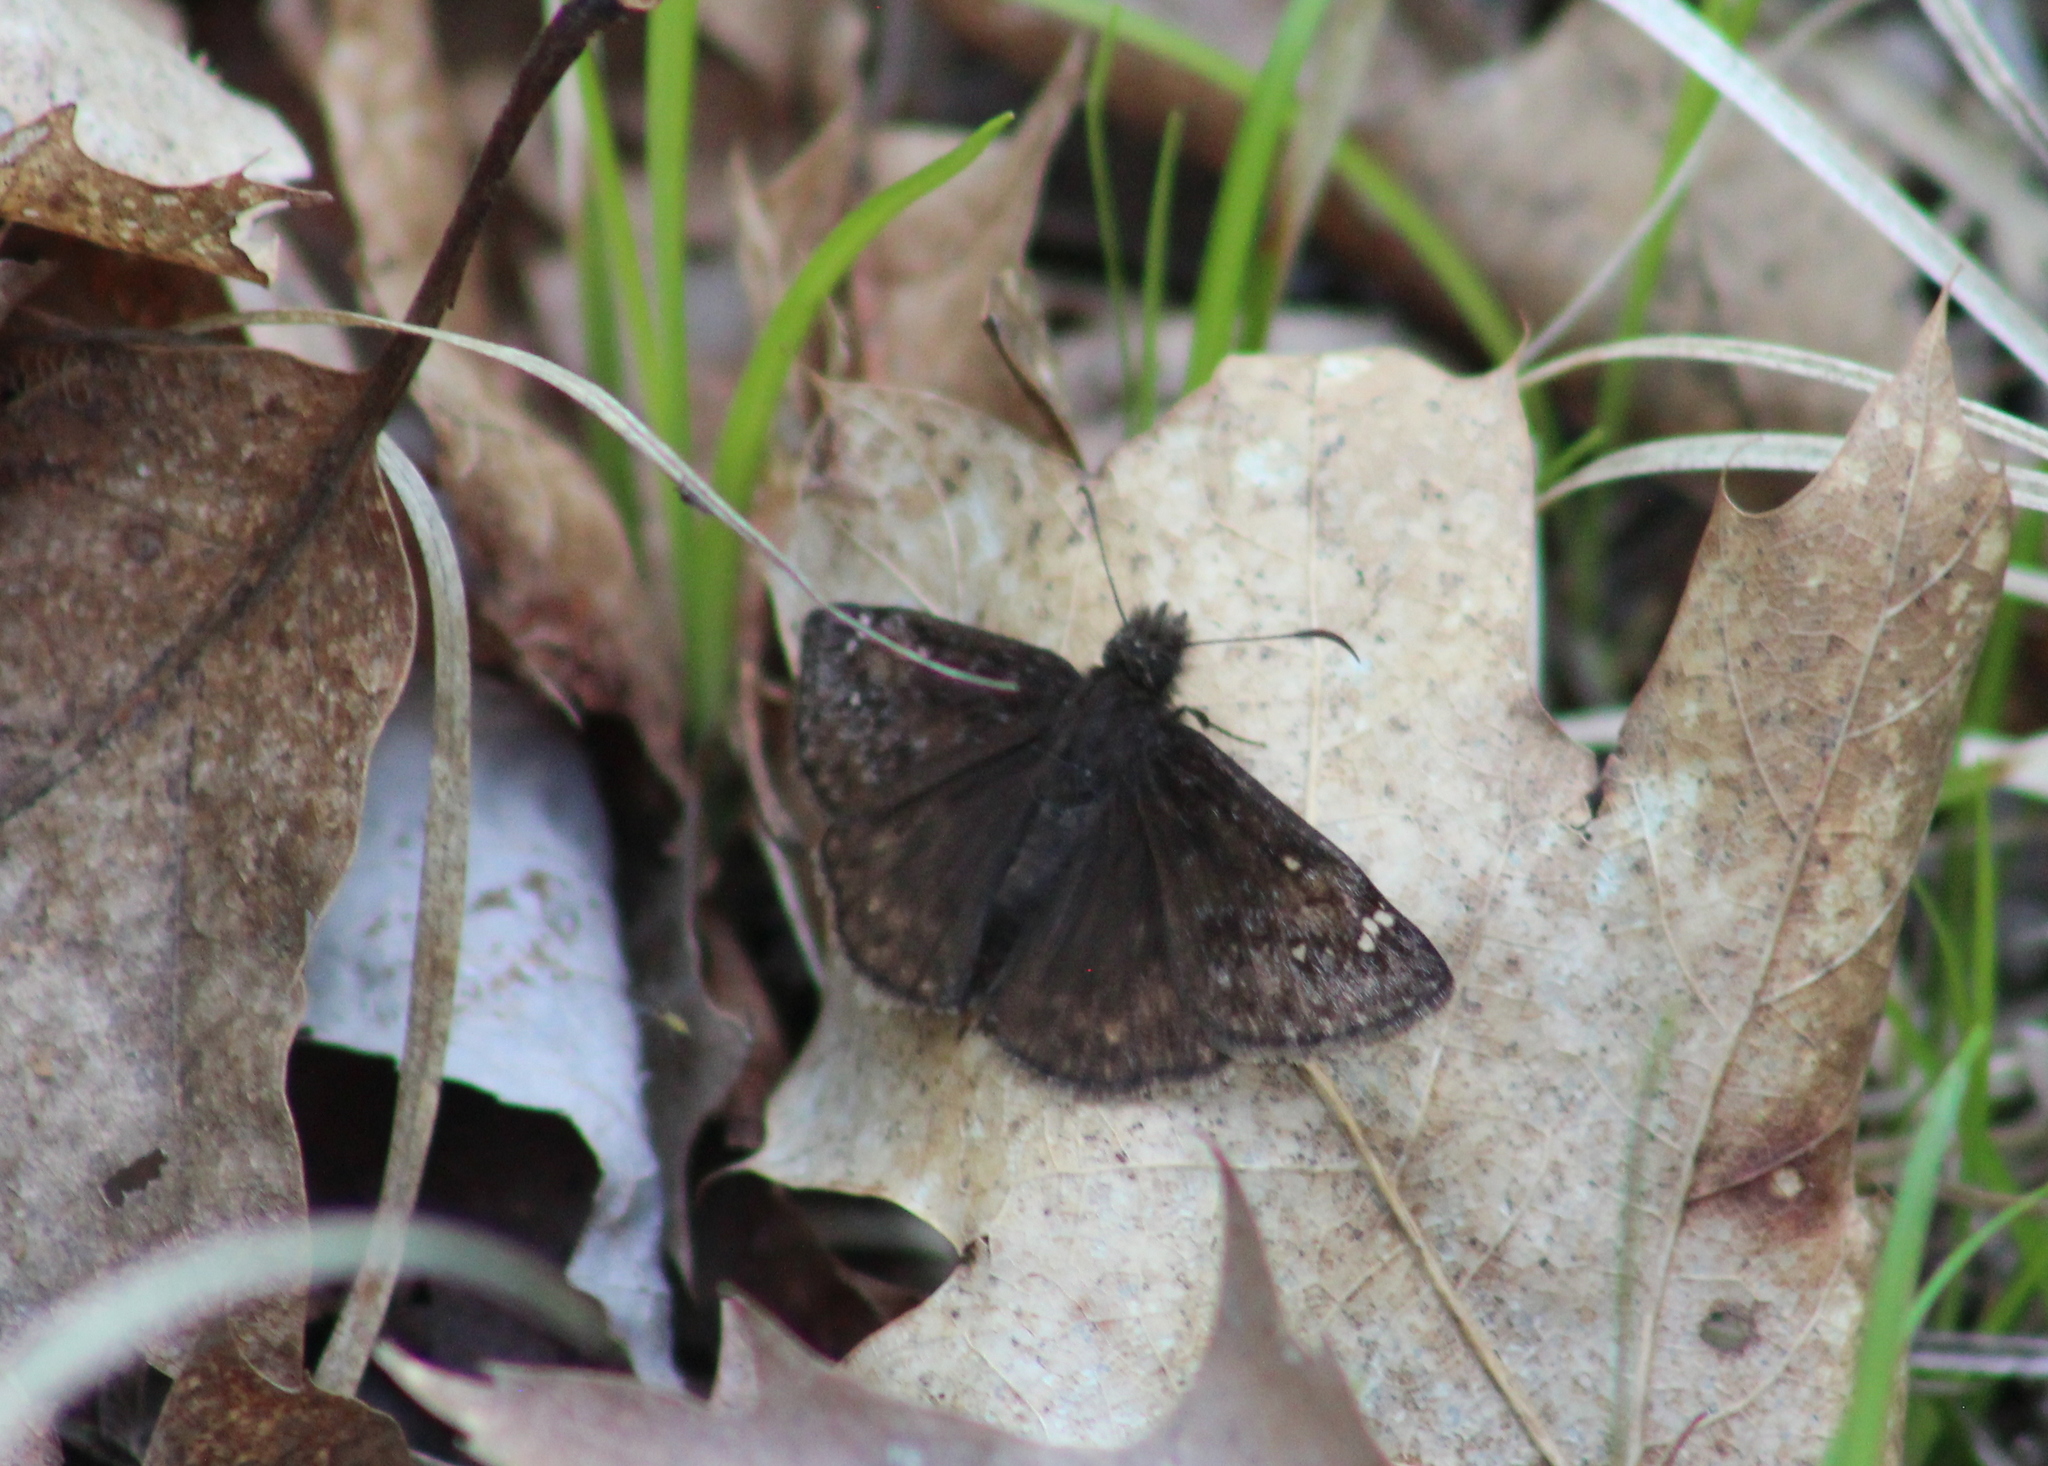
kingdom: Animalia
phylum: Arthropoda
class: Insecta
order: Lepidoptera
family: Hesperiidae
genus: Erynnis
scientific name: Erynnis juvenalis
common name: Juvenal's duskywing
